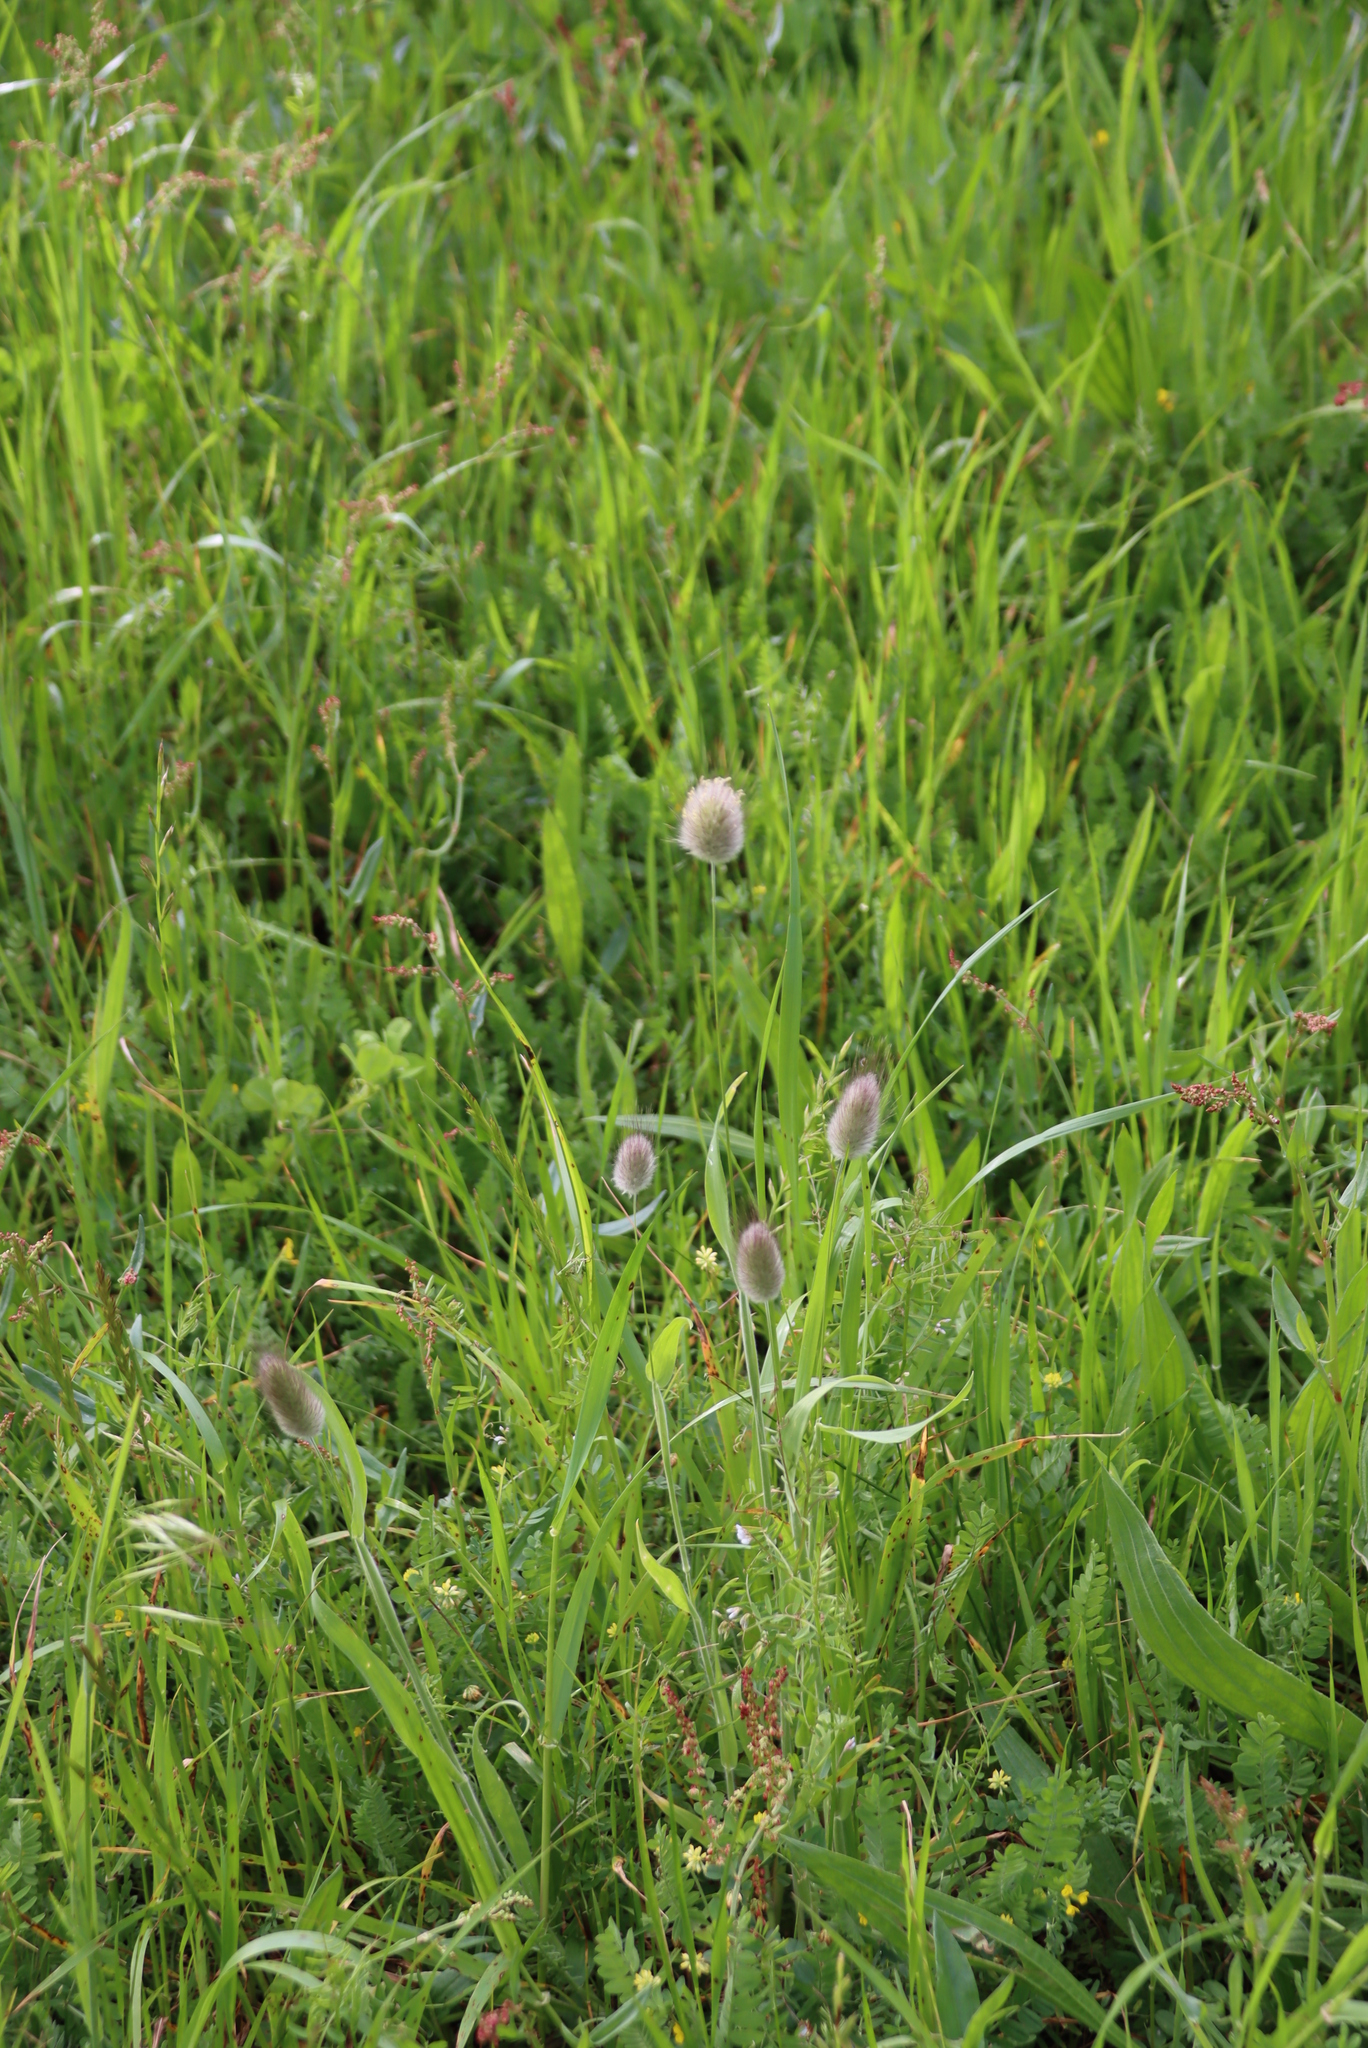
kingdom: Plantae
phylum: Tracheophyta
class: Liliopsida
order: Poales
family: Poaceae
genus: Lagurus
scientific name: Lagurus ovatus
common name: Hare's-tail
